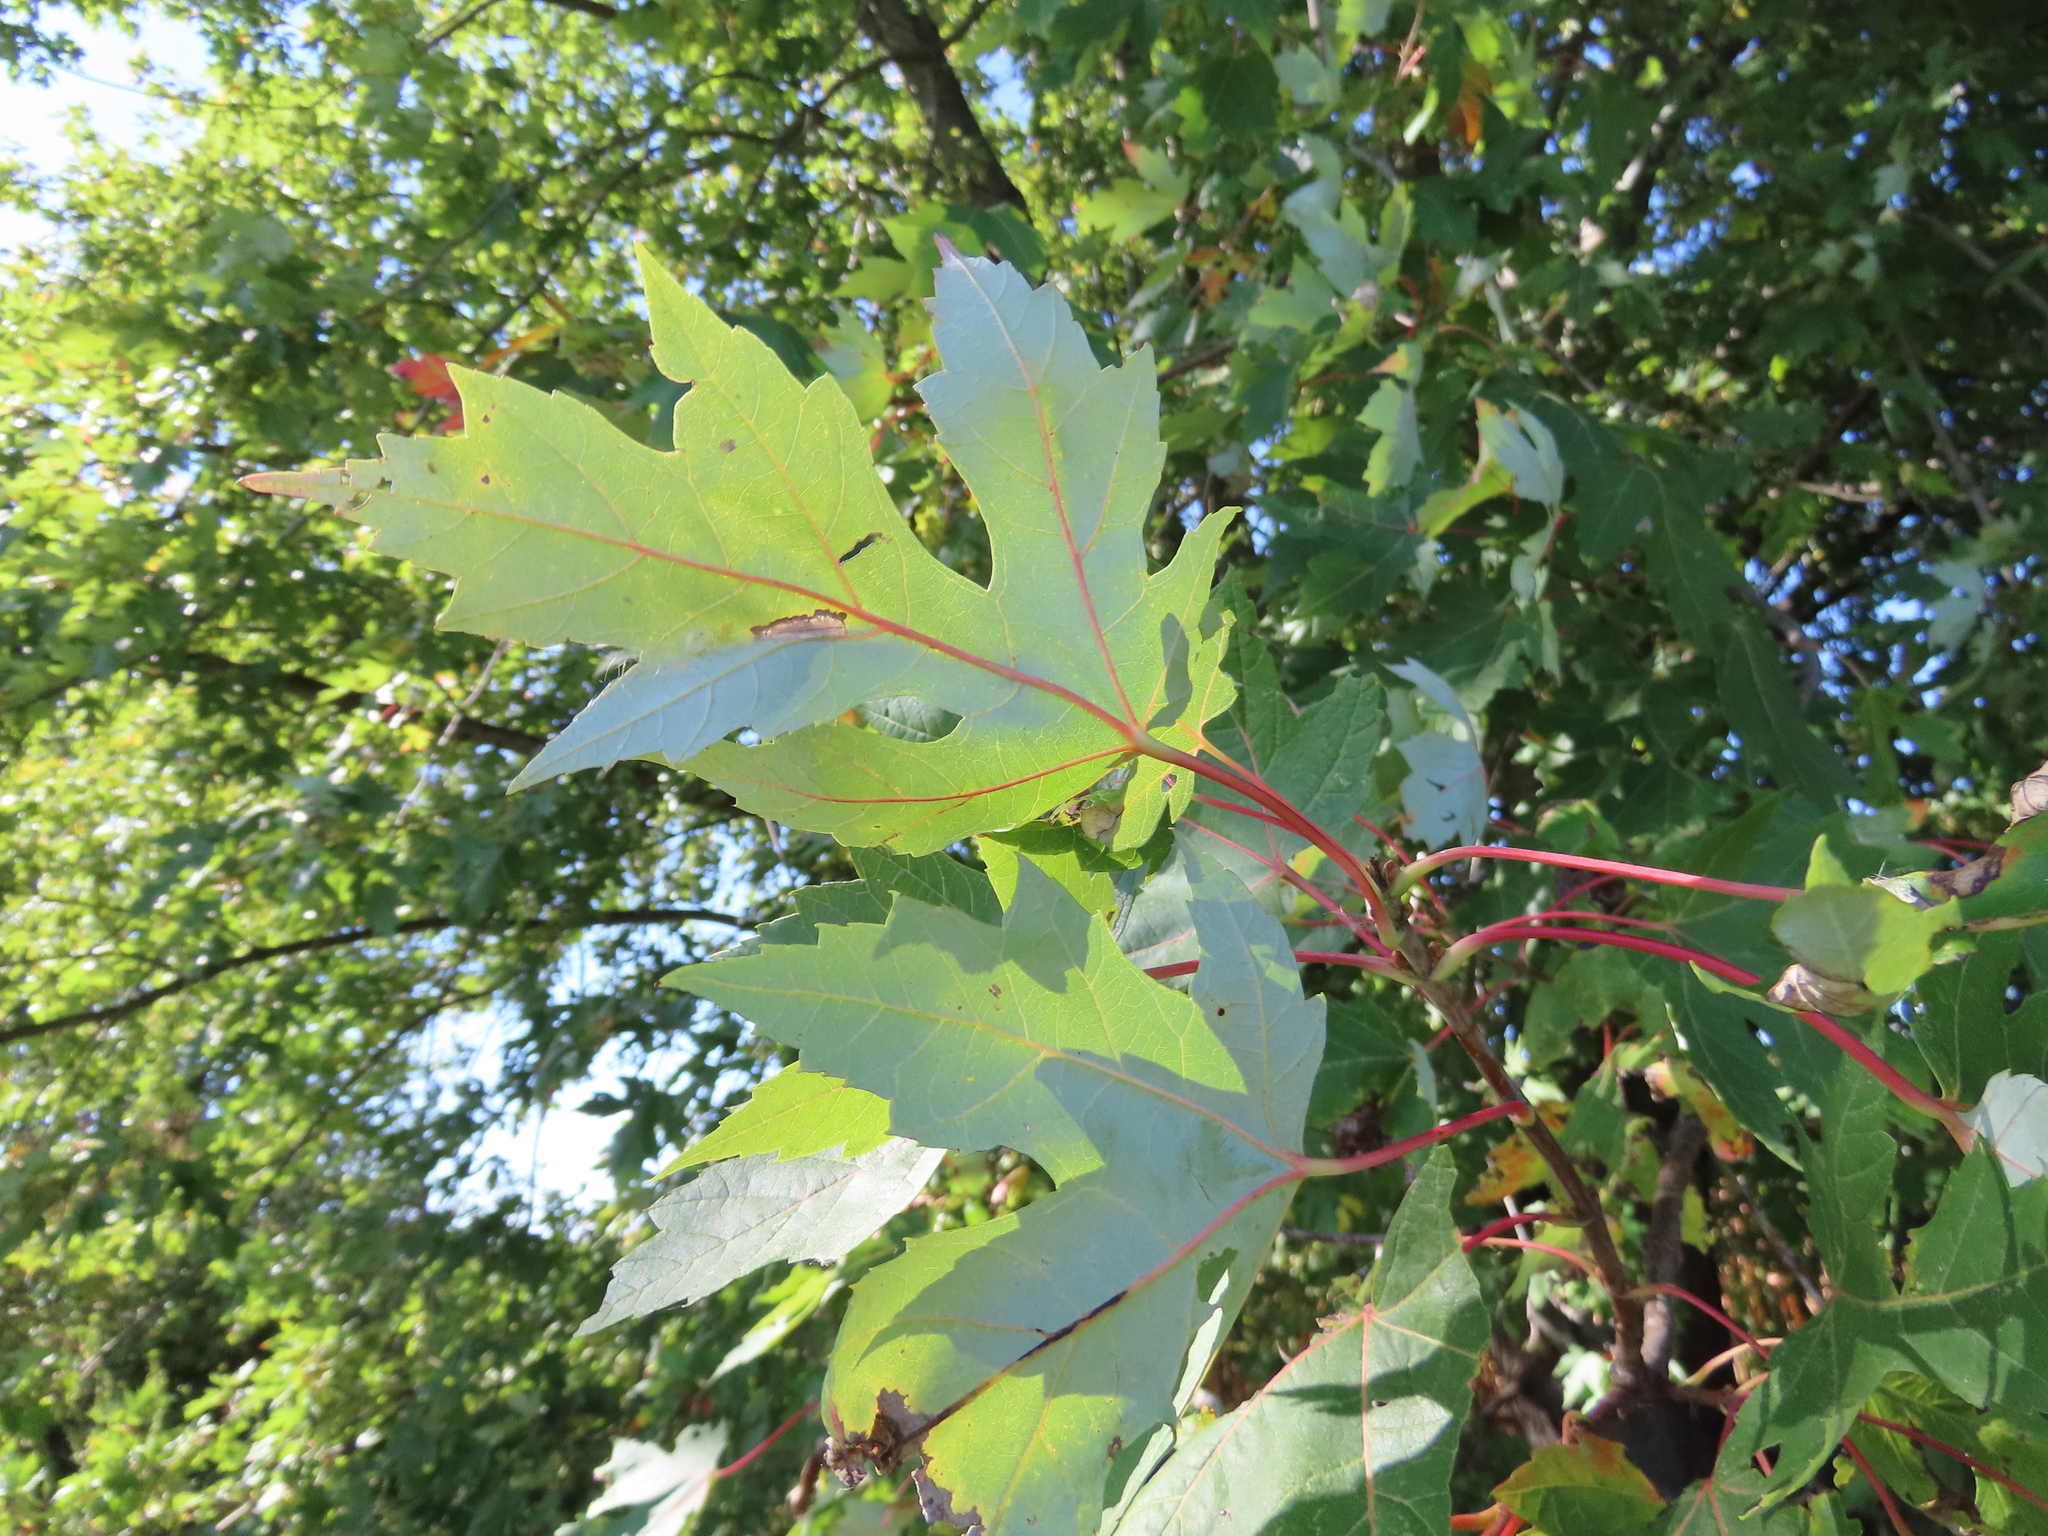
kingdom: Plantae
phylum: Tracheophyta
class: Magnoliopsida
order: Sapindales
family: Sapindaceae
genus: Acer
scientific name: Acer saccharinum
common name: Silver maple
